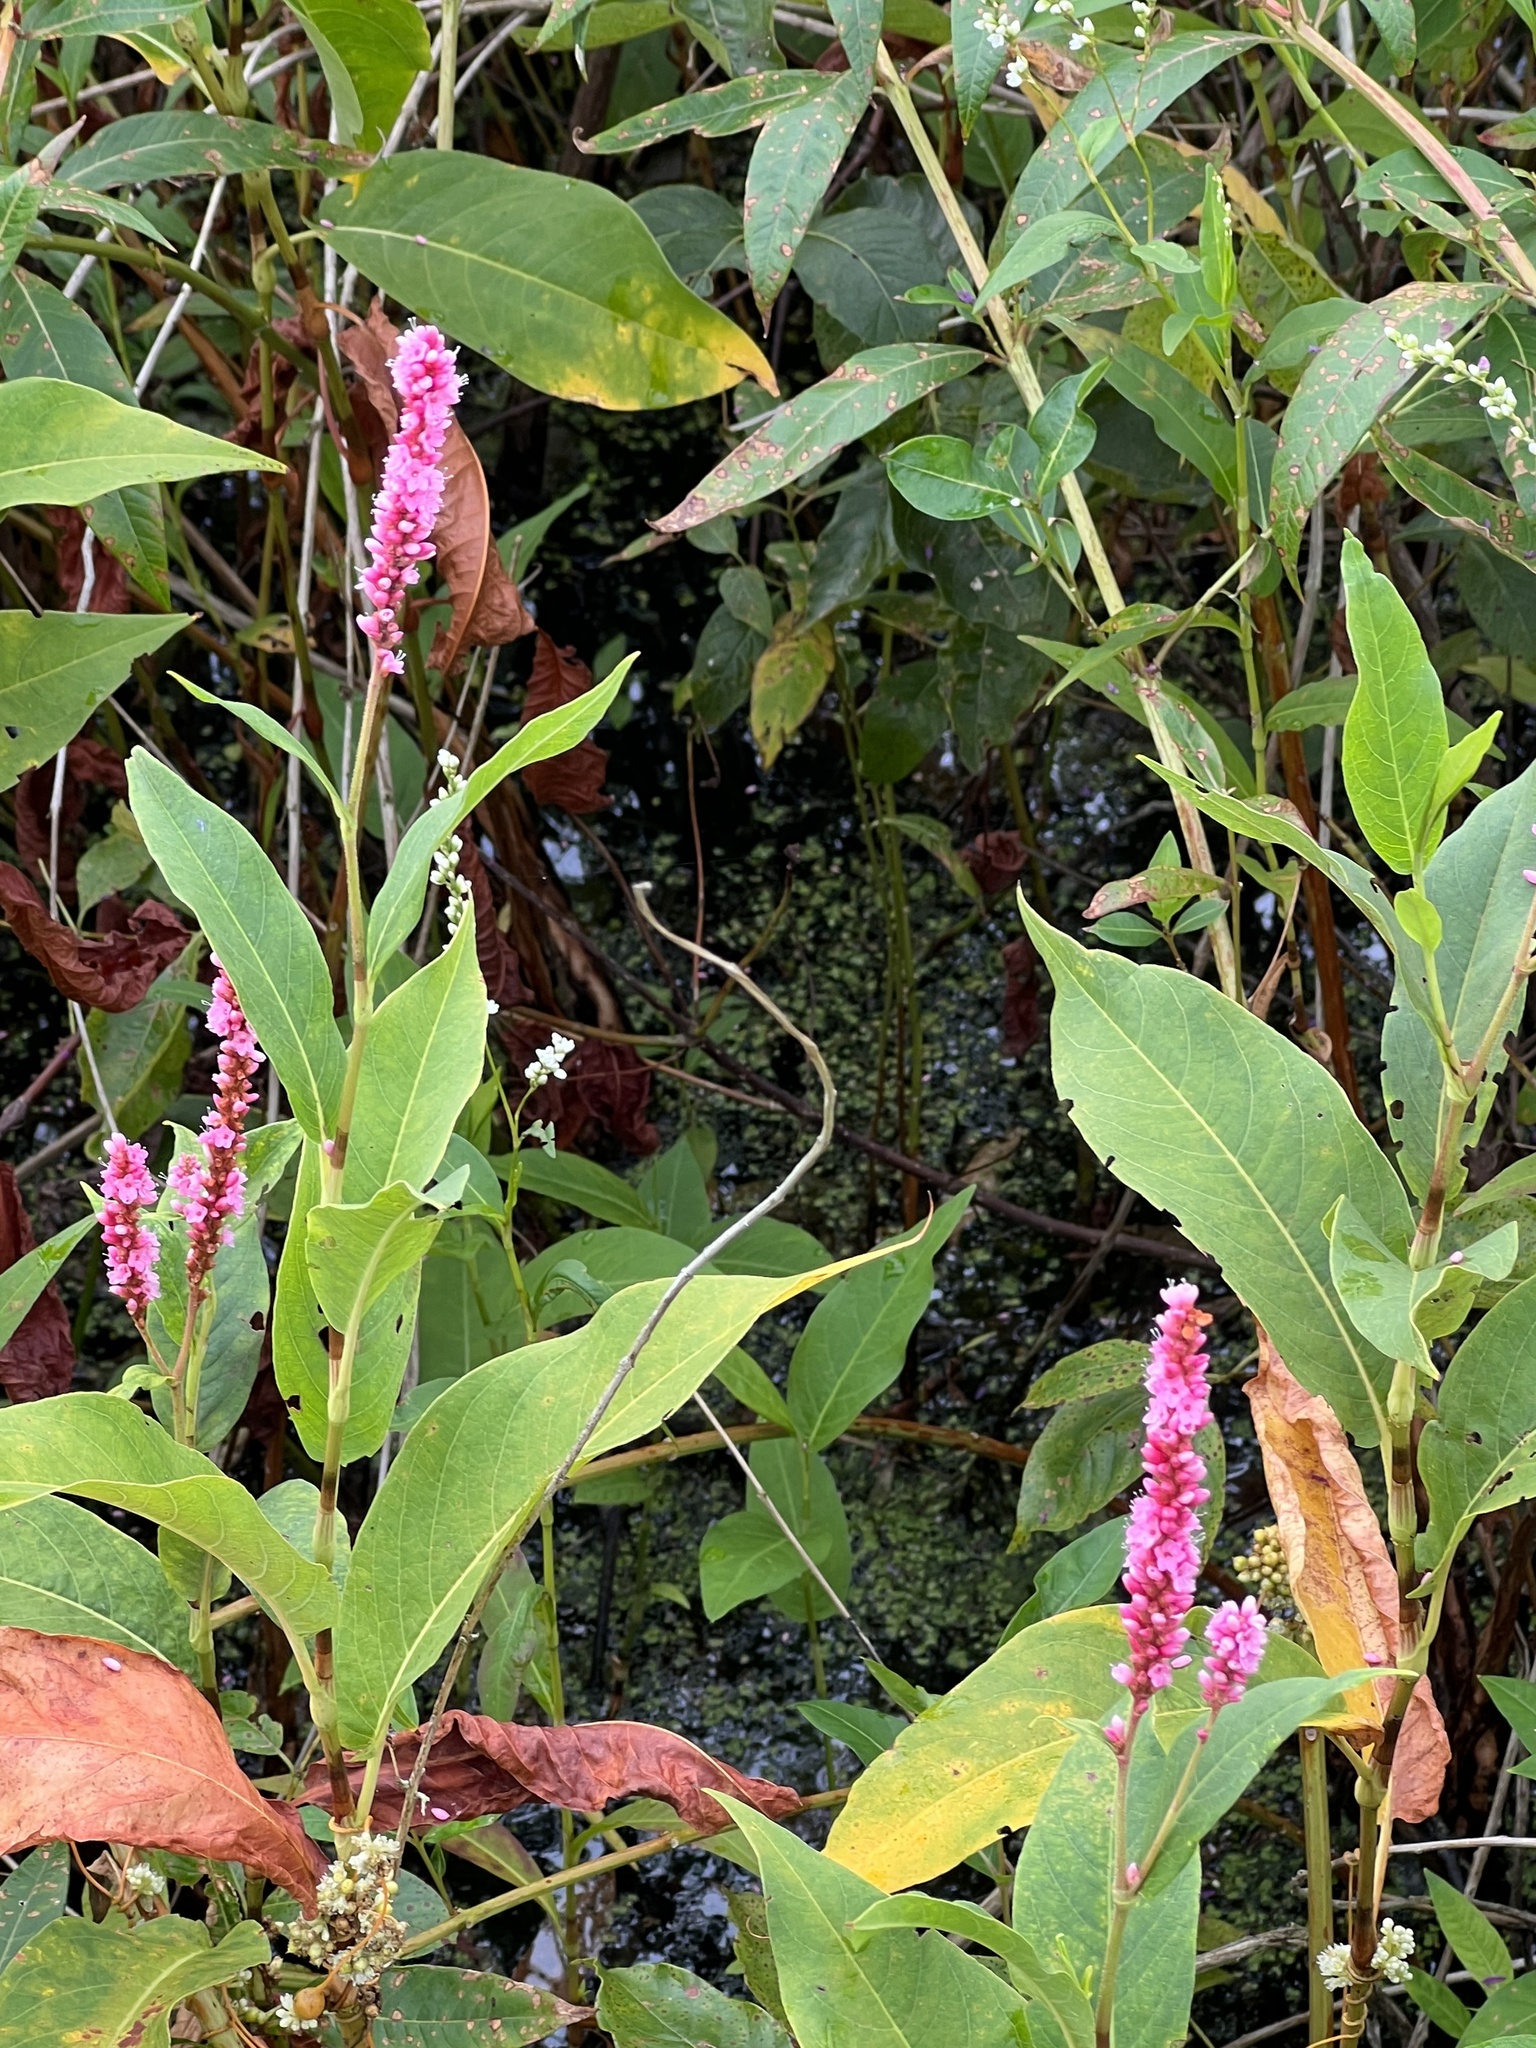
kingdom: Plantae
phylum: Tracheophyta
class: Magnoliopsida
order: Caryophyllales
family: Polygonaceae
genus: Persicaria
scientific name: Persicaria amphibia
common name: Amphibious bistort
